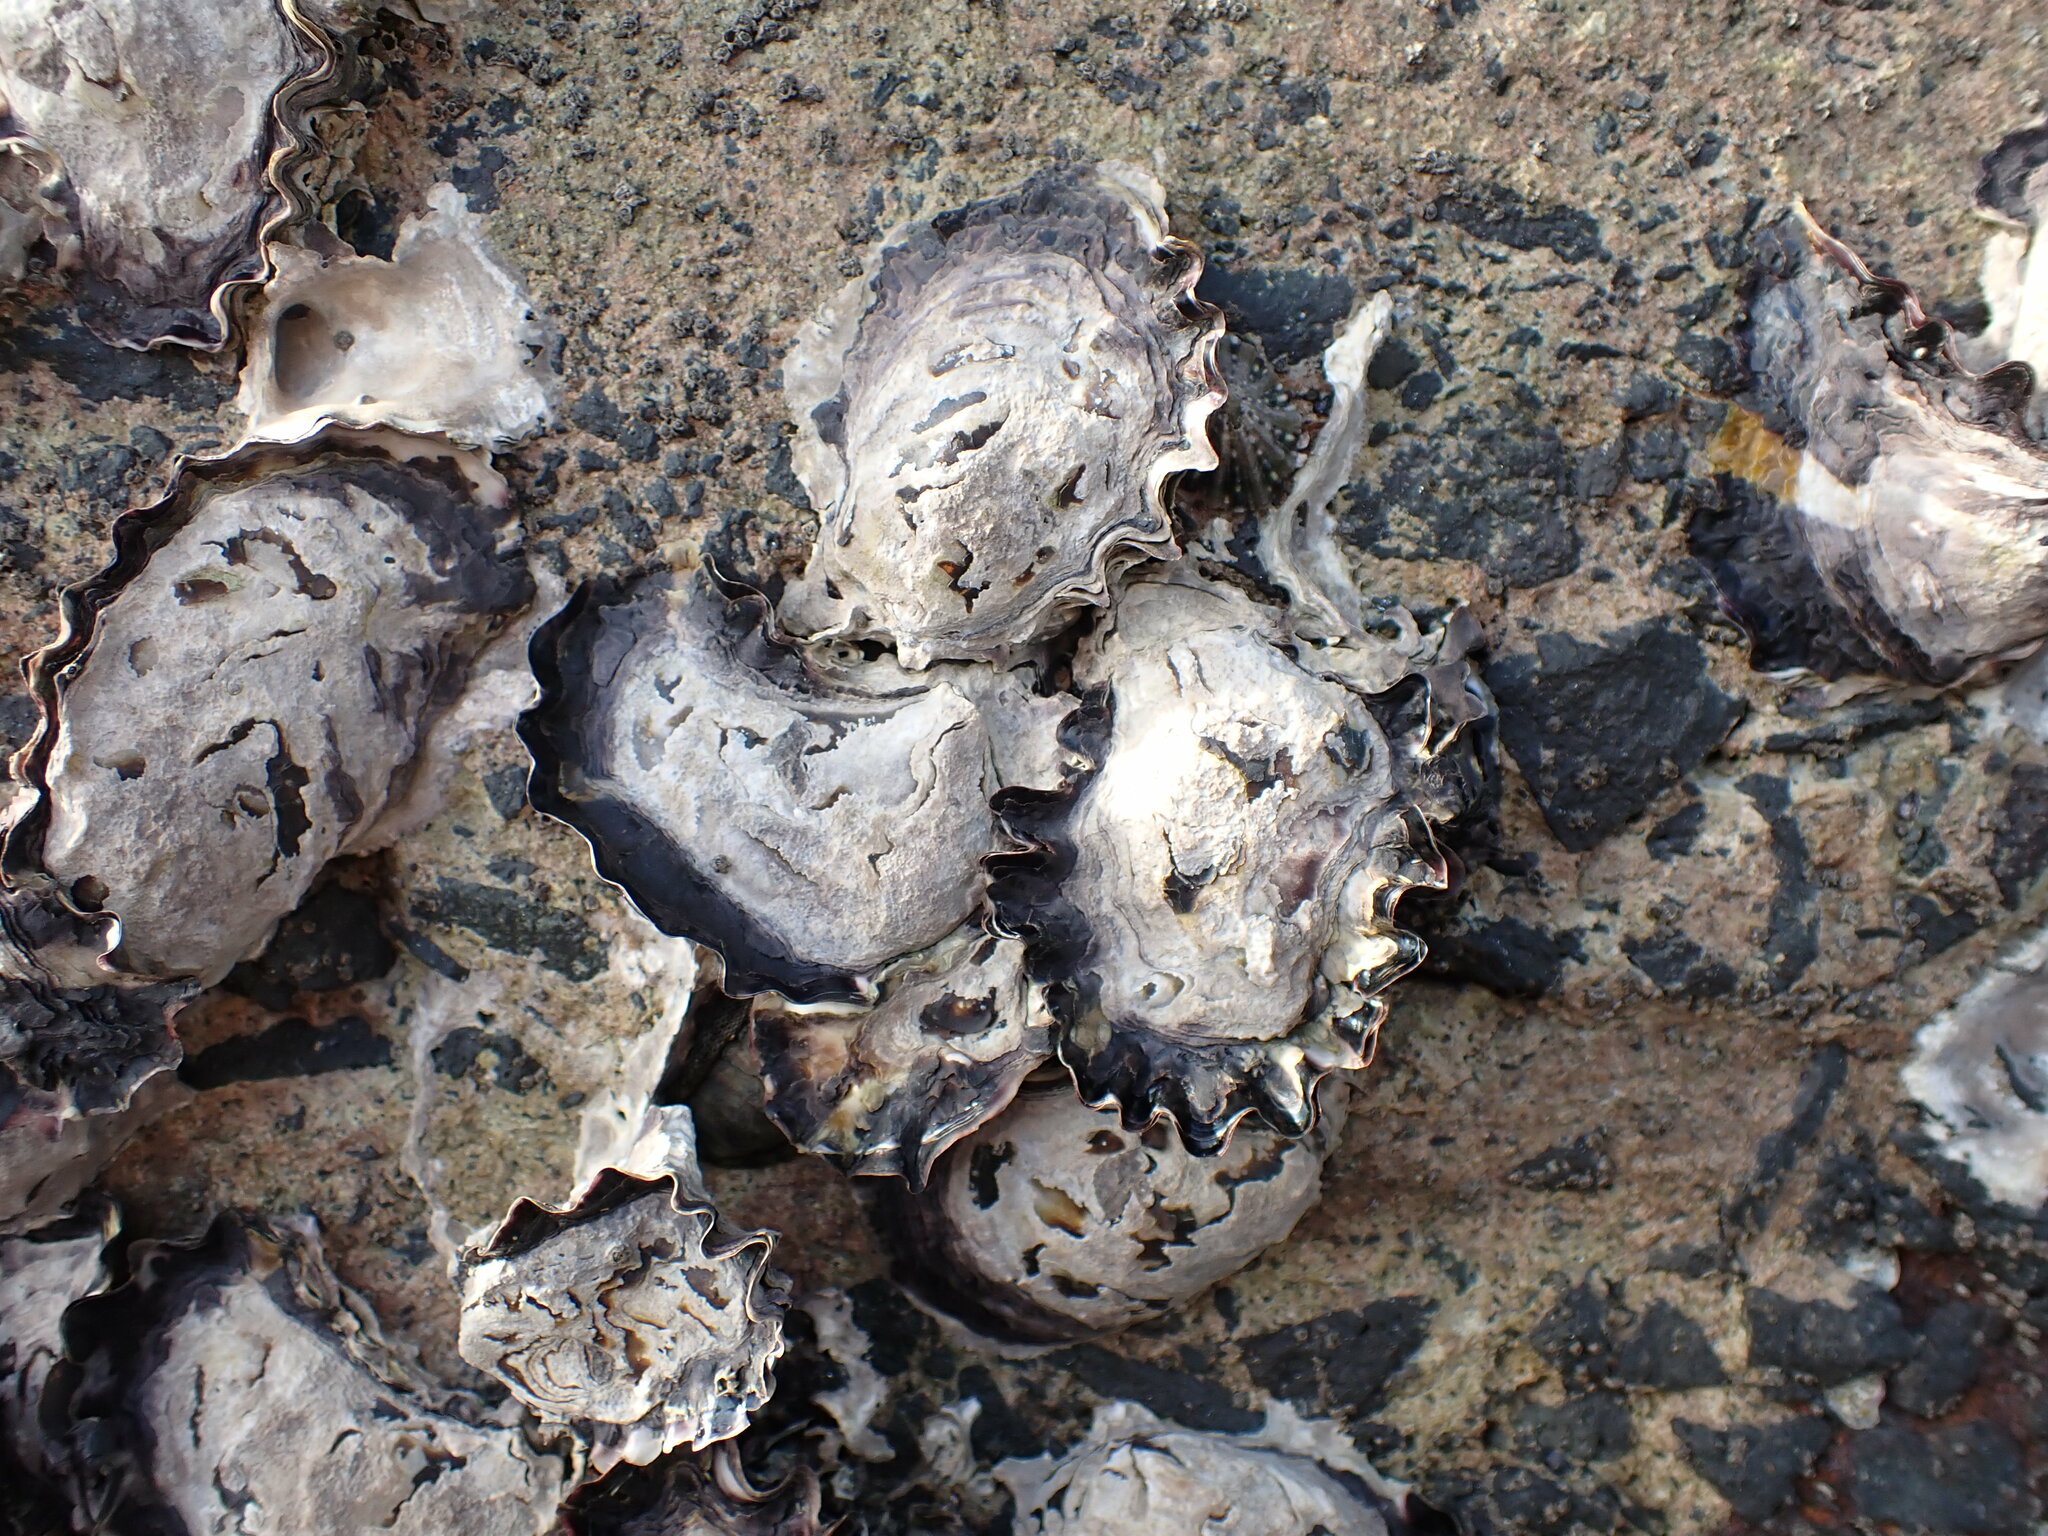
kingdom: Animalia
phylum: Mollusca
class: Bivalvia
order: Ostreida
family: Ostreidae
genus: Saccostrea
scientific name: Saccostrea glomerata
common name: Sydney cupped oyster
